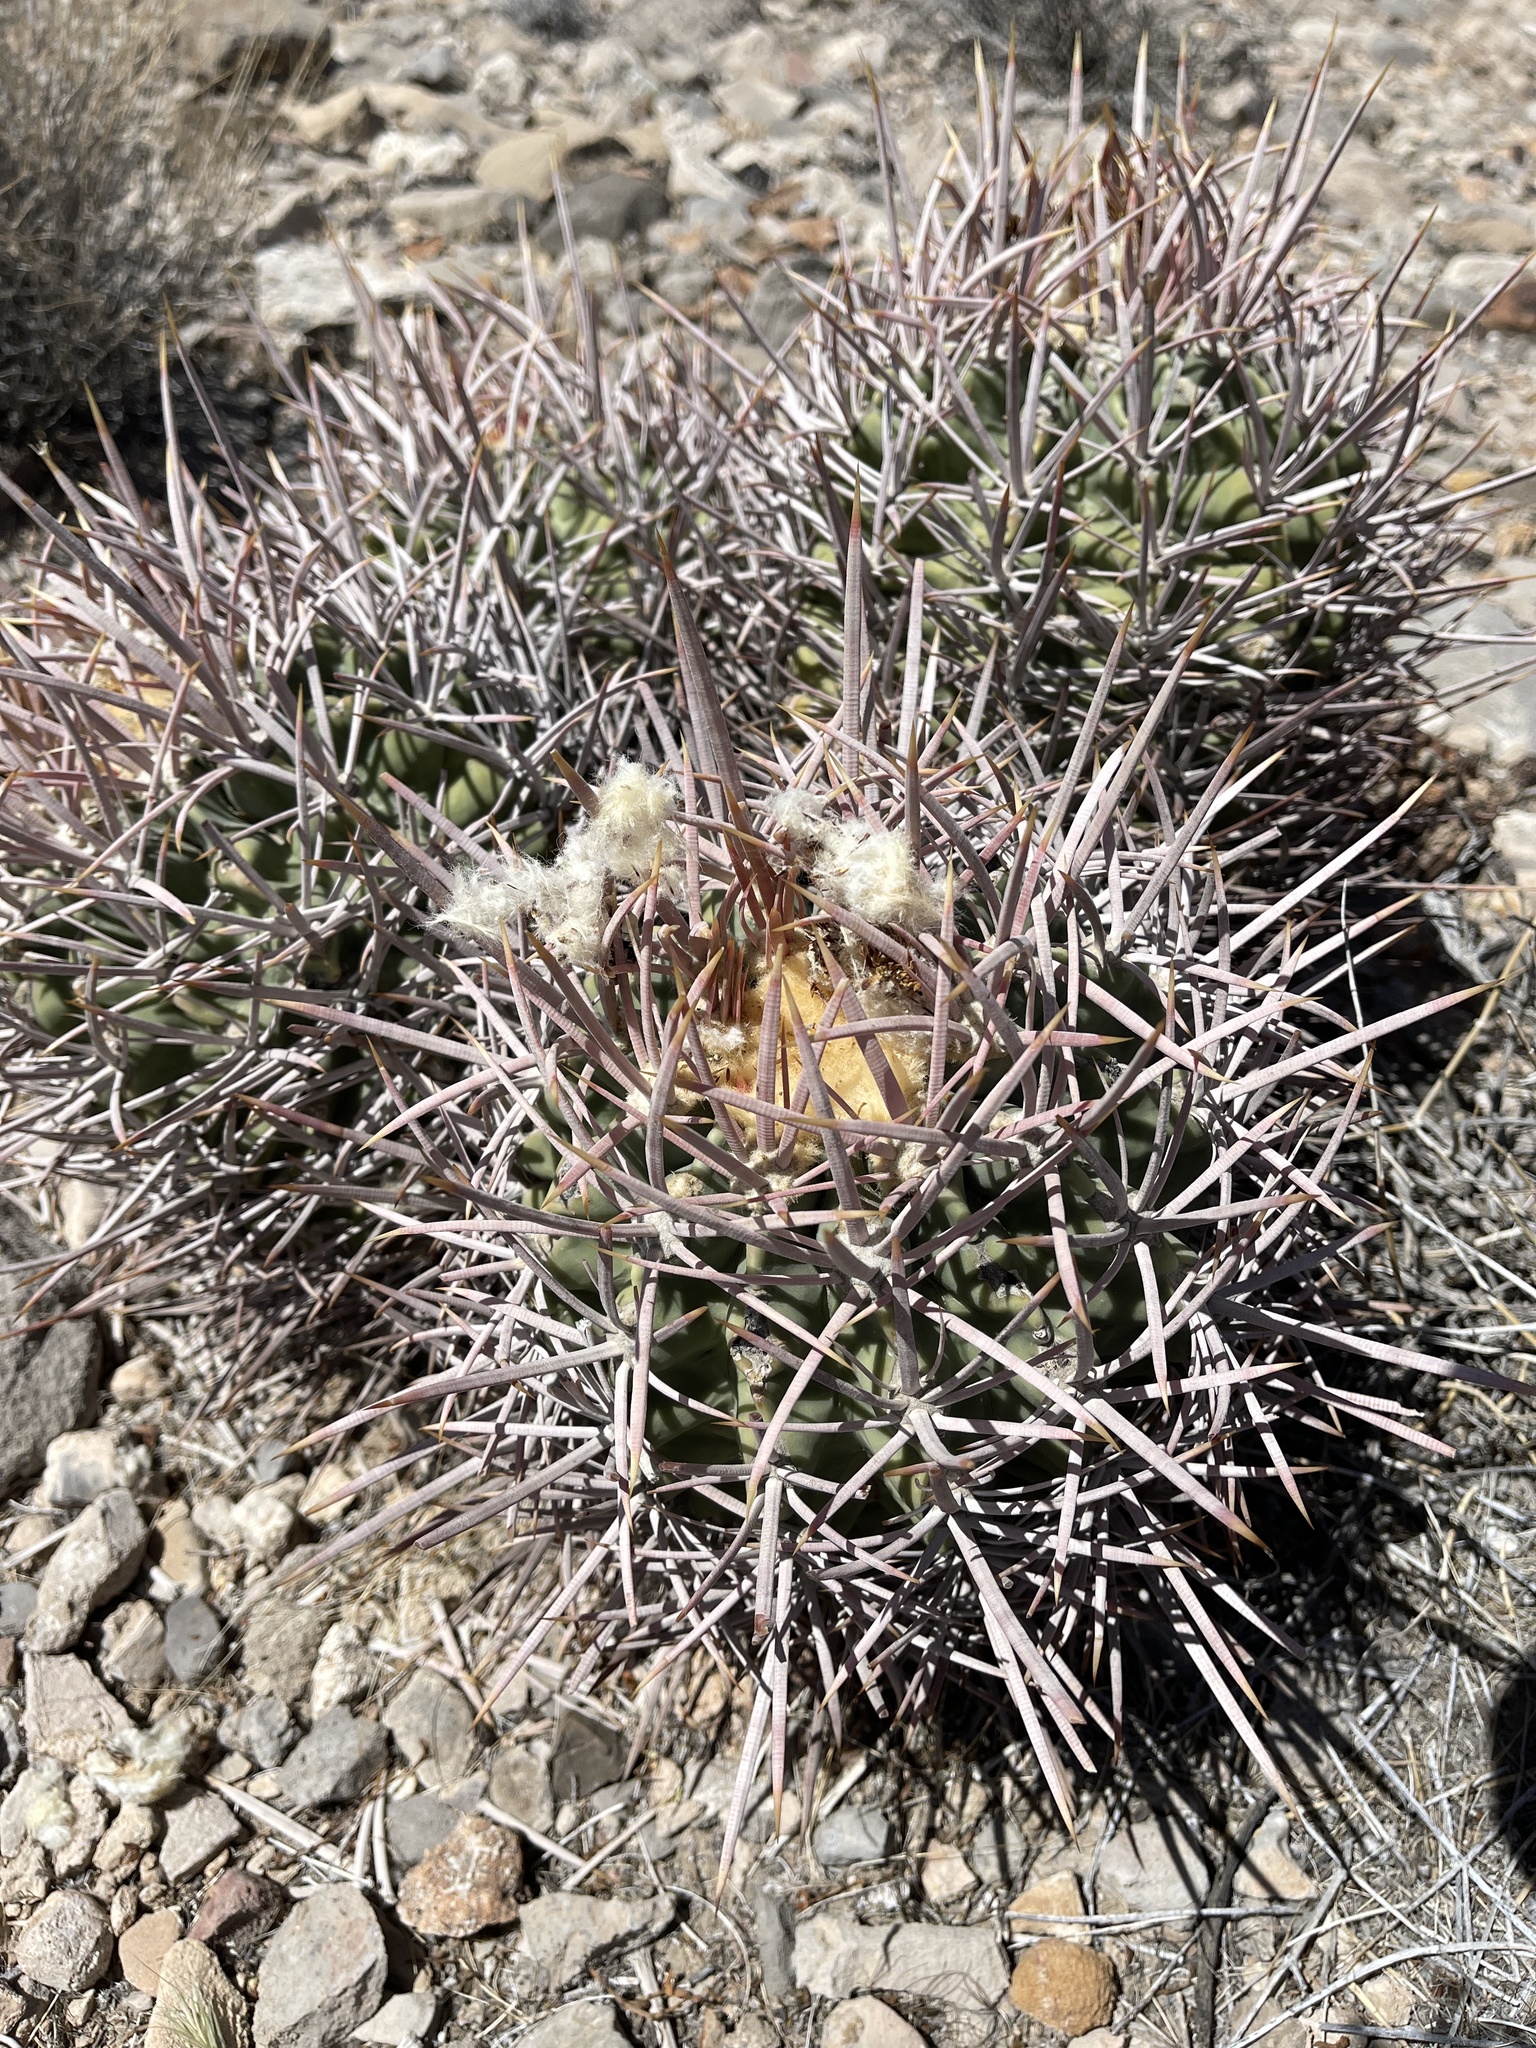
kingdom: Plantae
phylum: Tracheophyta
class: Magnoliopsida
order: Caryophyllales
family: Cactaceae
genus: Echinocactus
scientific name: Echinocactus polycephalus
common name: Cottontop cactus
